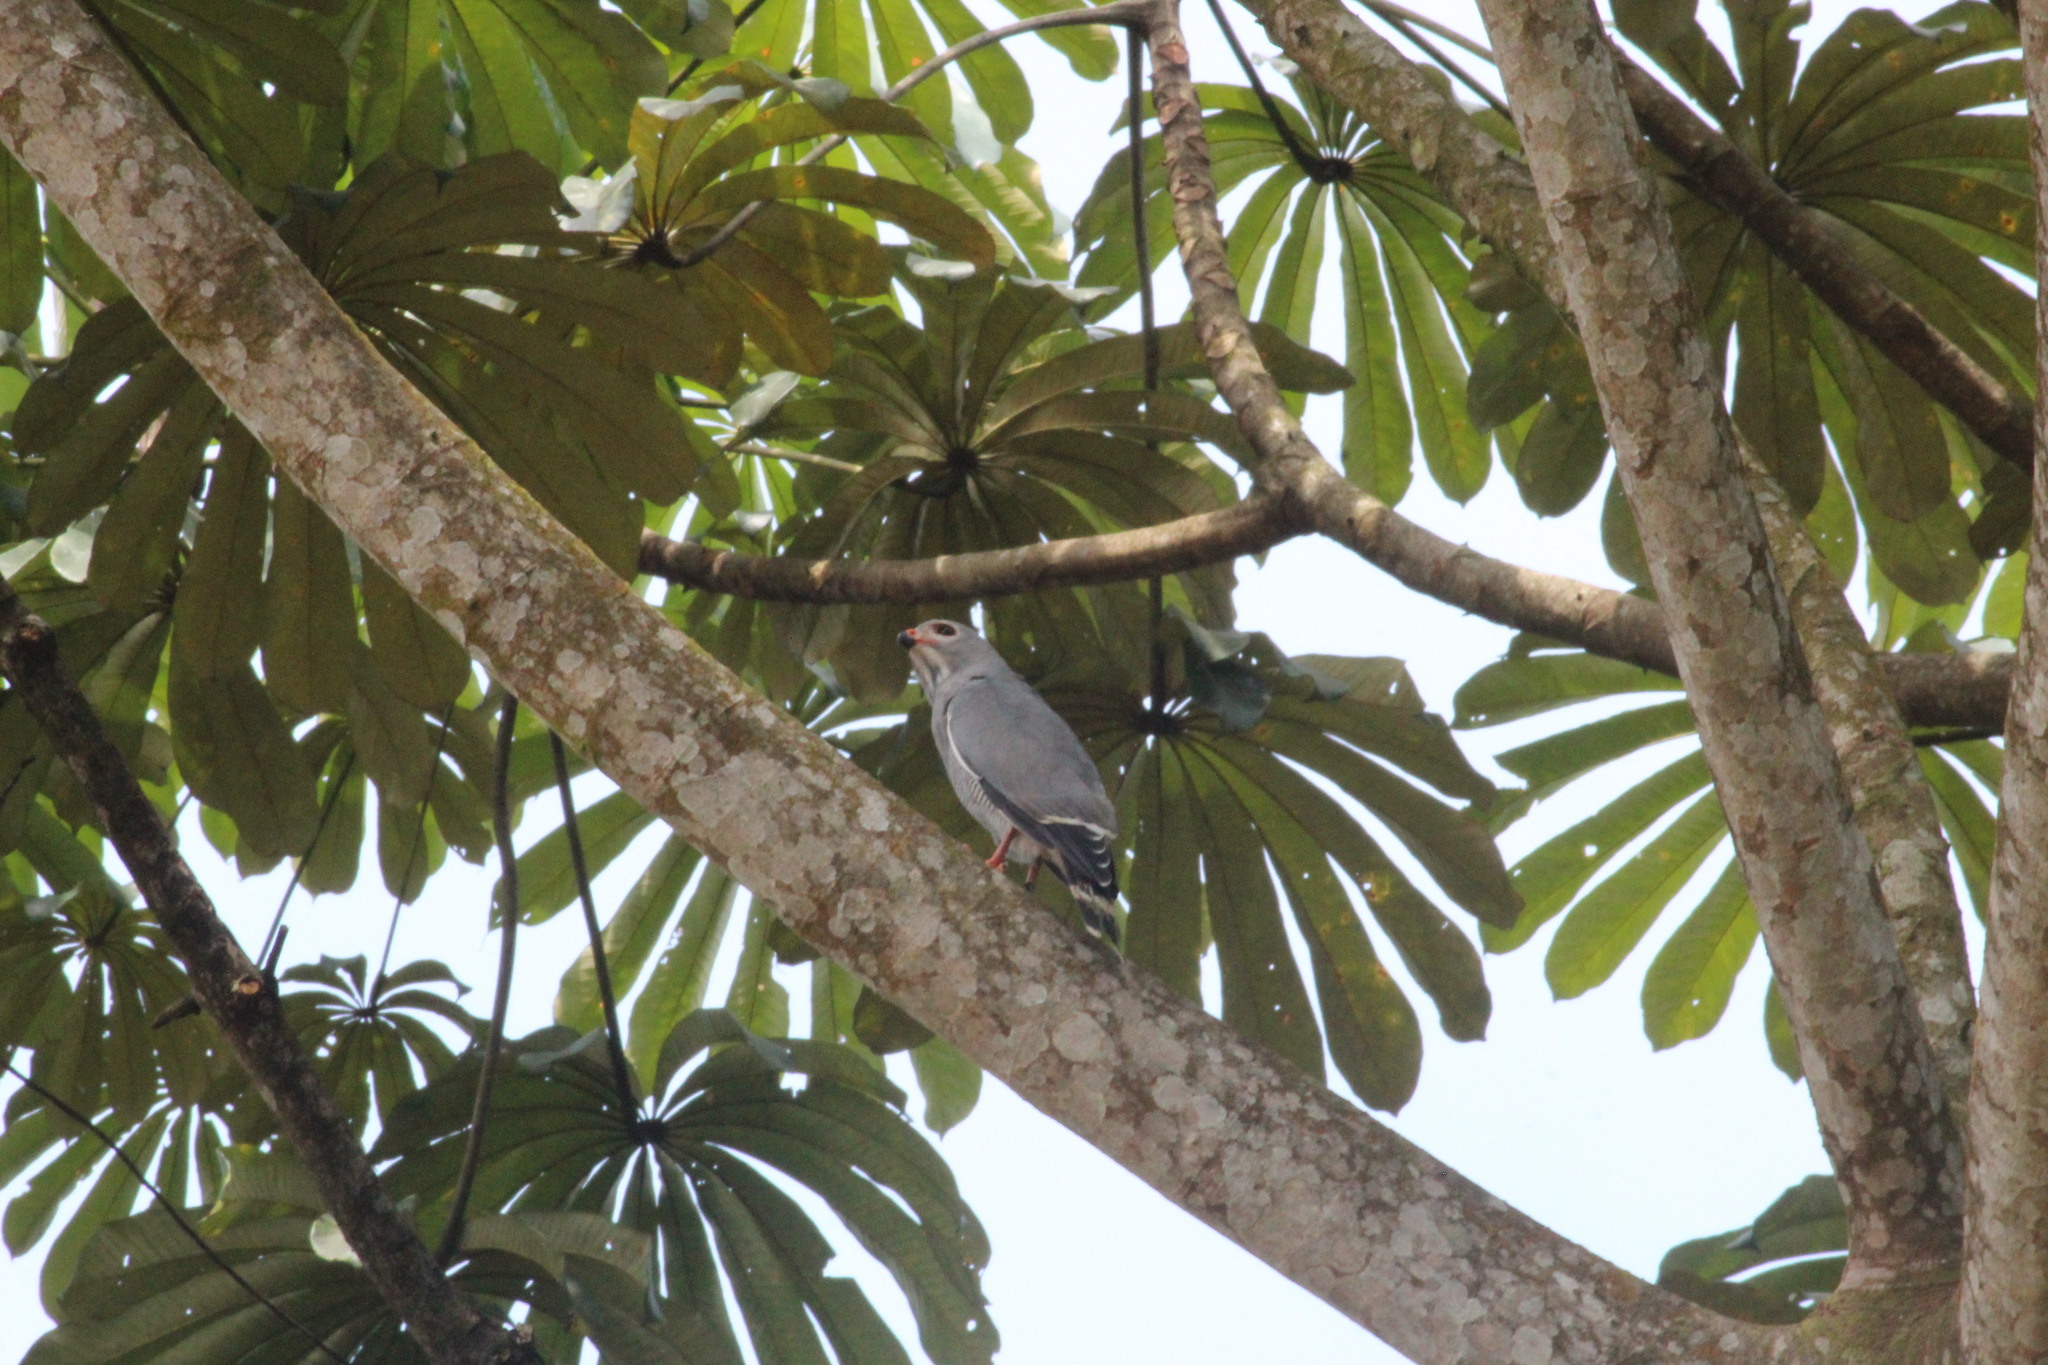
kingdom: Animalia
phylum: Chordata
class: Aves
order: Accipitriformes
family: Accipitridae
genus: Kaupifalco
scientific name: Kaupifalco monogrammicus
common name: Lizard buzzard
